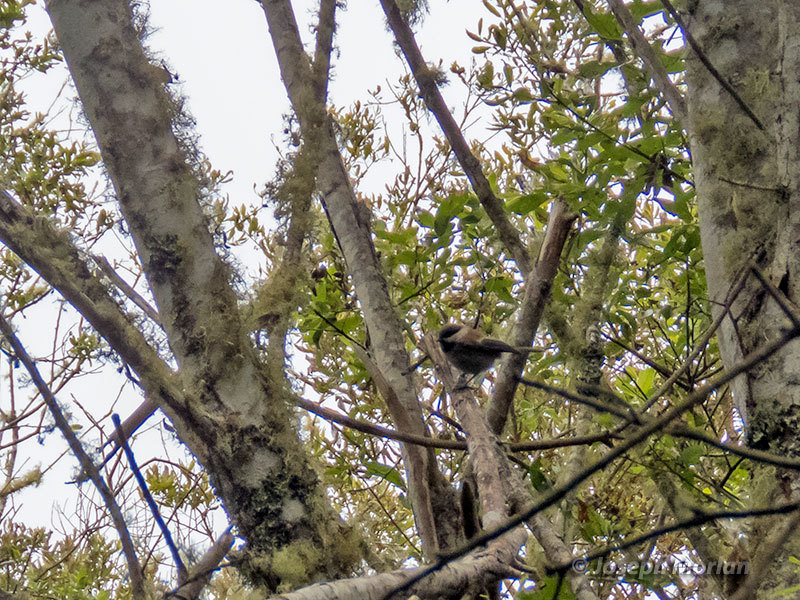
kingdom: Animalia
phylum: Chordata
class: Aves
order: Passeriformes
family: Paridae
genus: Poecile
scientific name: Poecile rufescens
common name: Chestnut-backed chickadee
